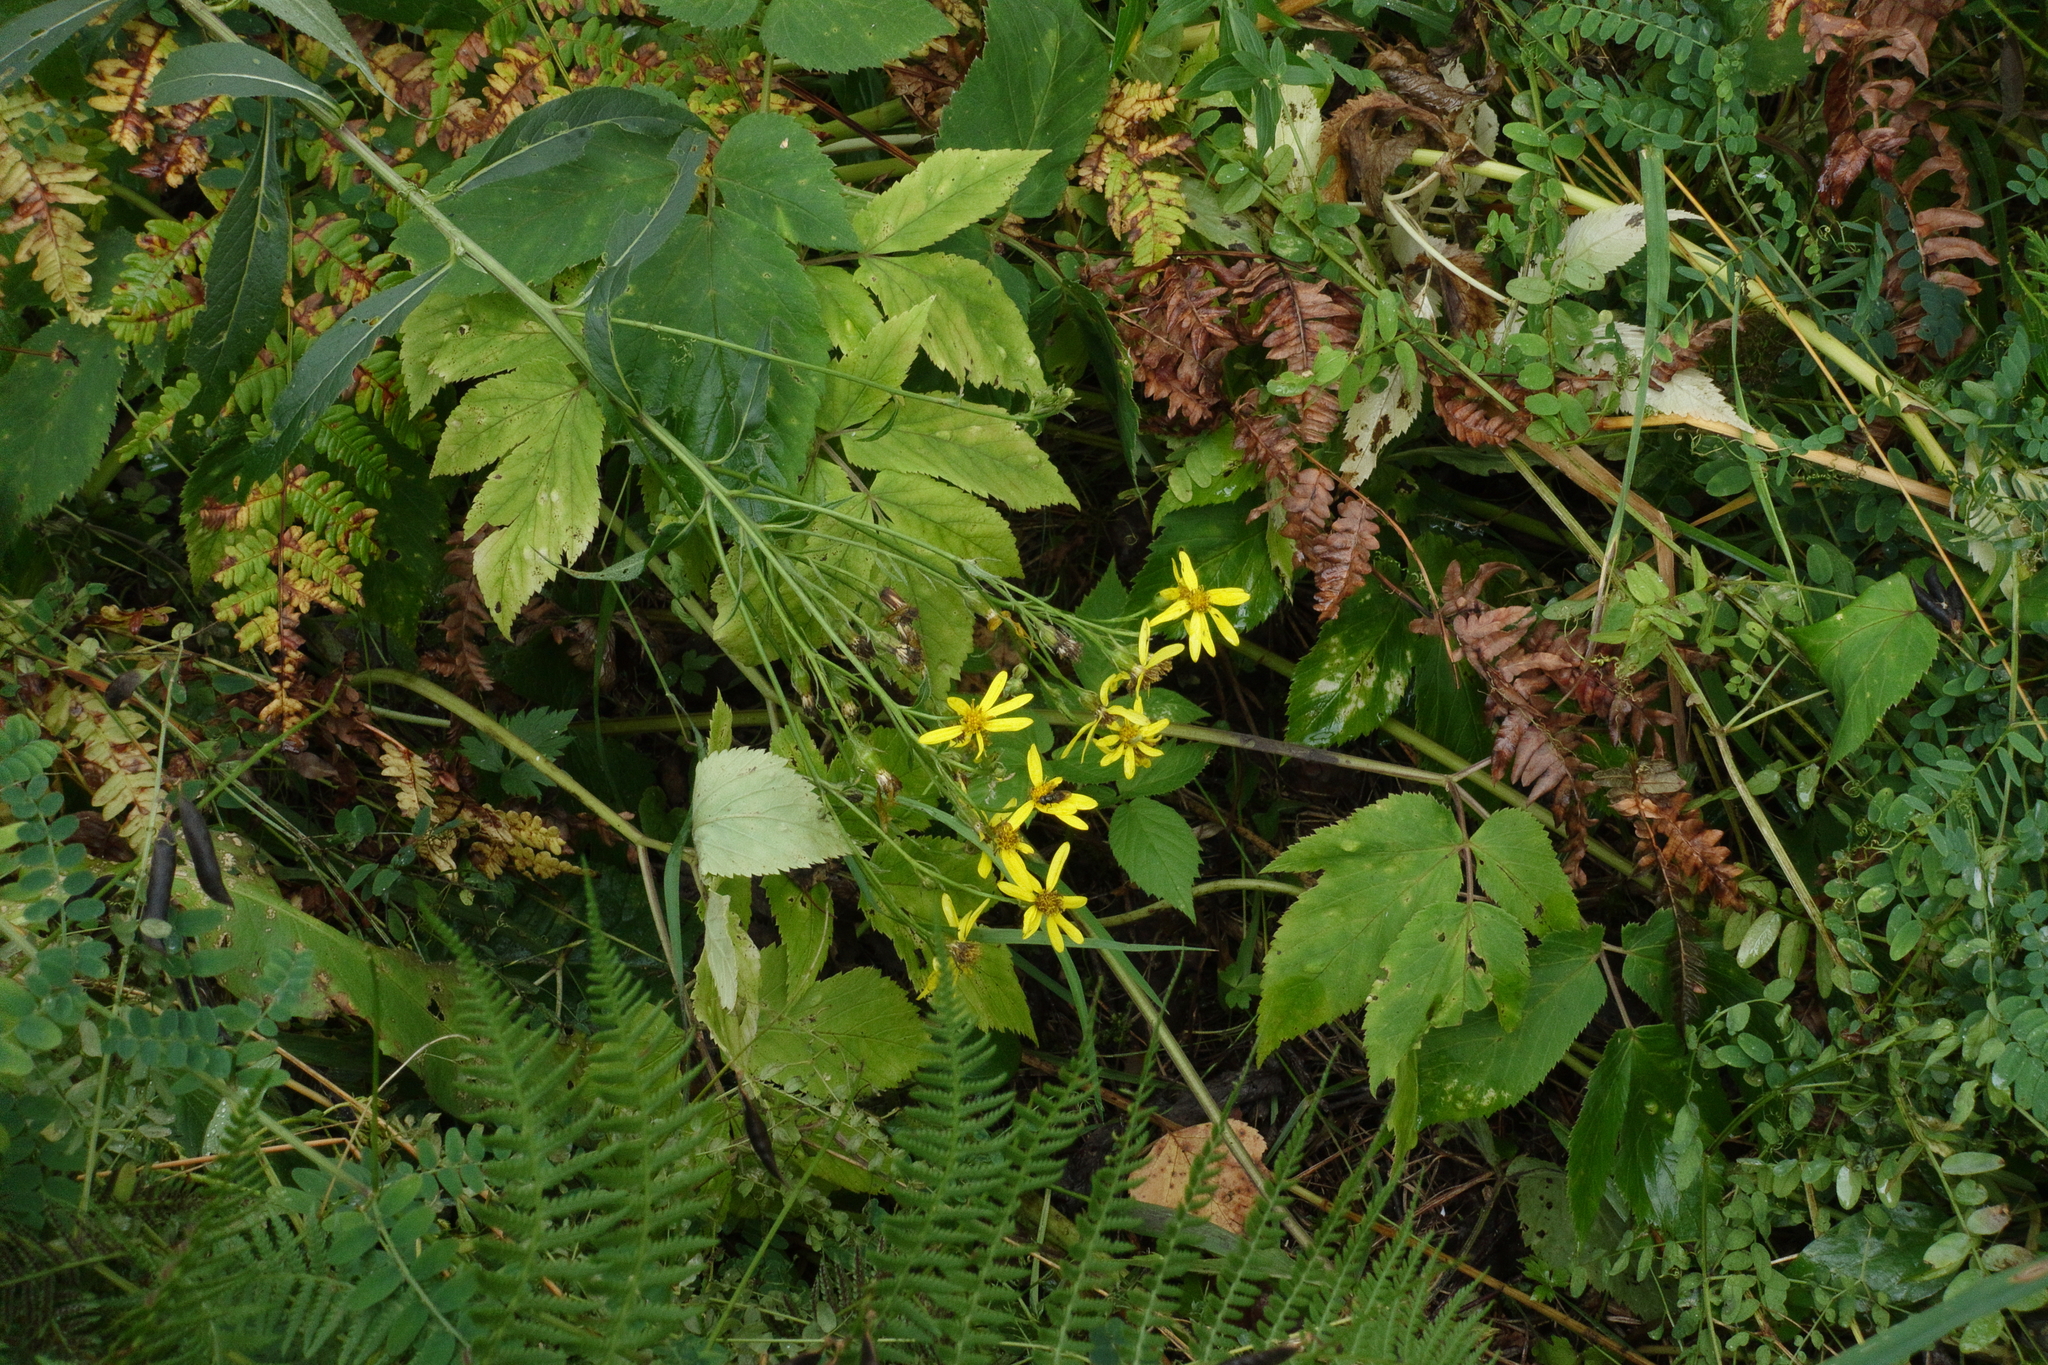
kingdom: Plantae
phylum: Tracheophyta
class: Magnoliopsida
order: Apiales
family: Apiaceae
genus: Aegopodium
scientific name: Aegopodium podagraria
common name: Ground-elder
